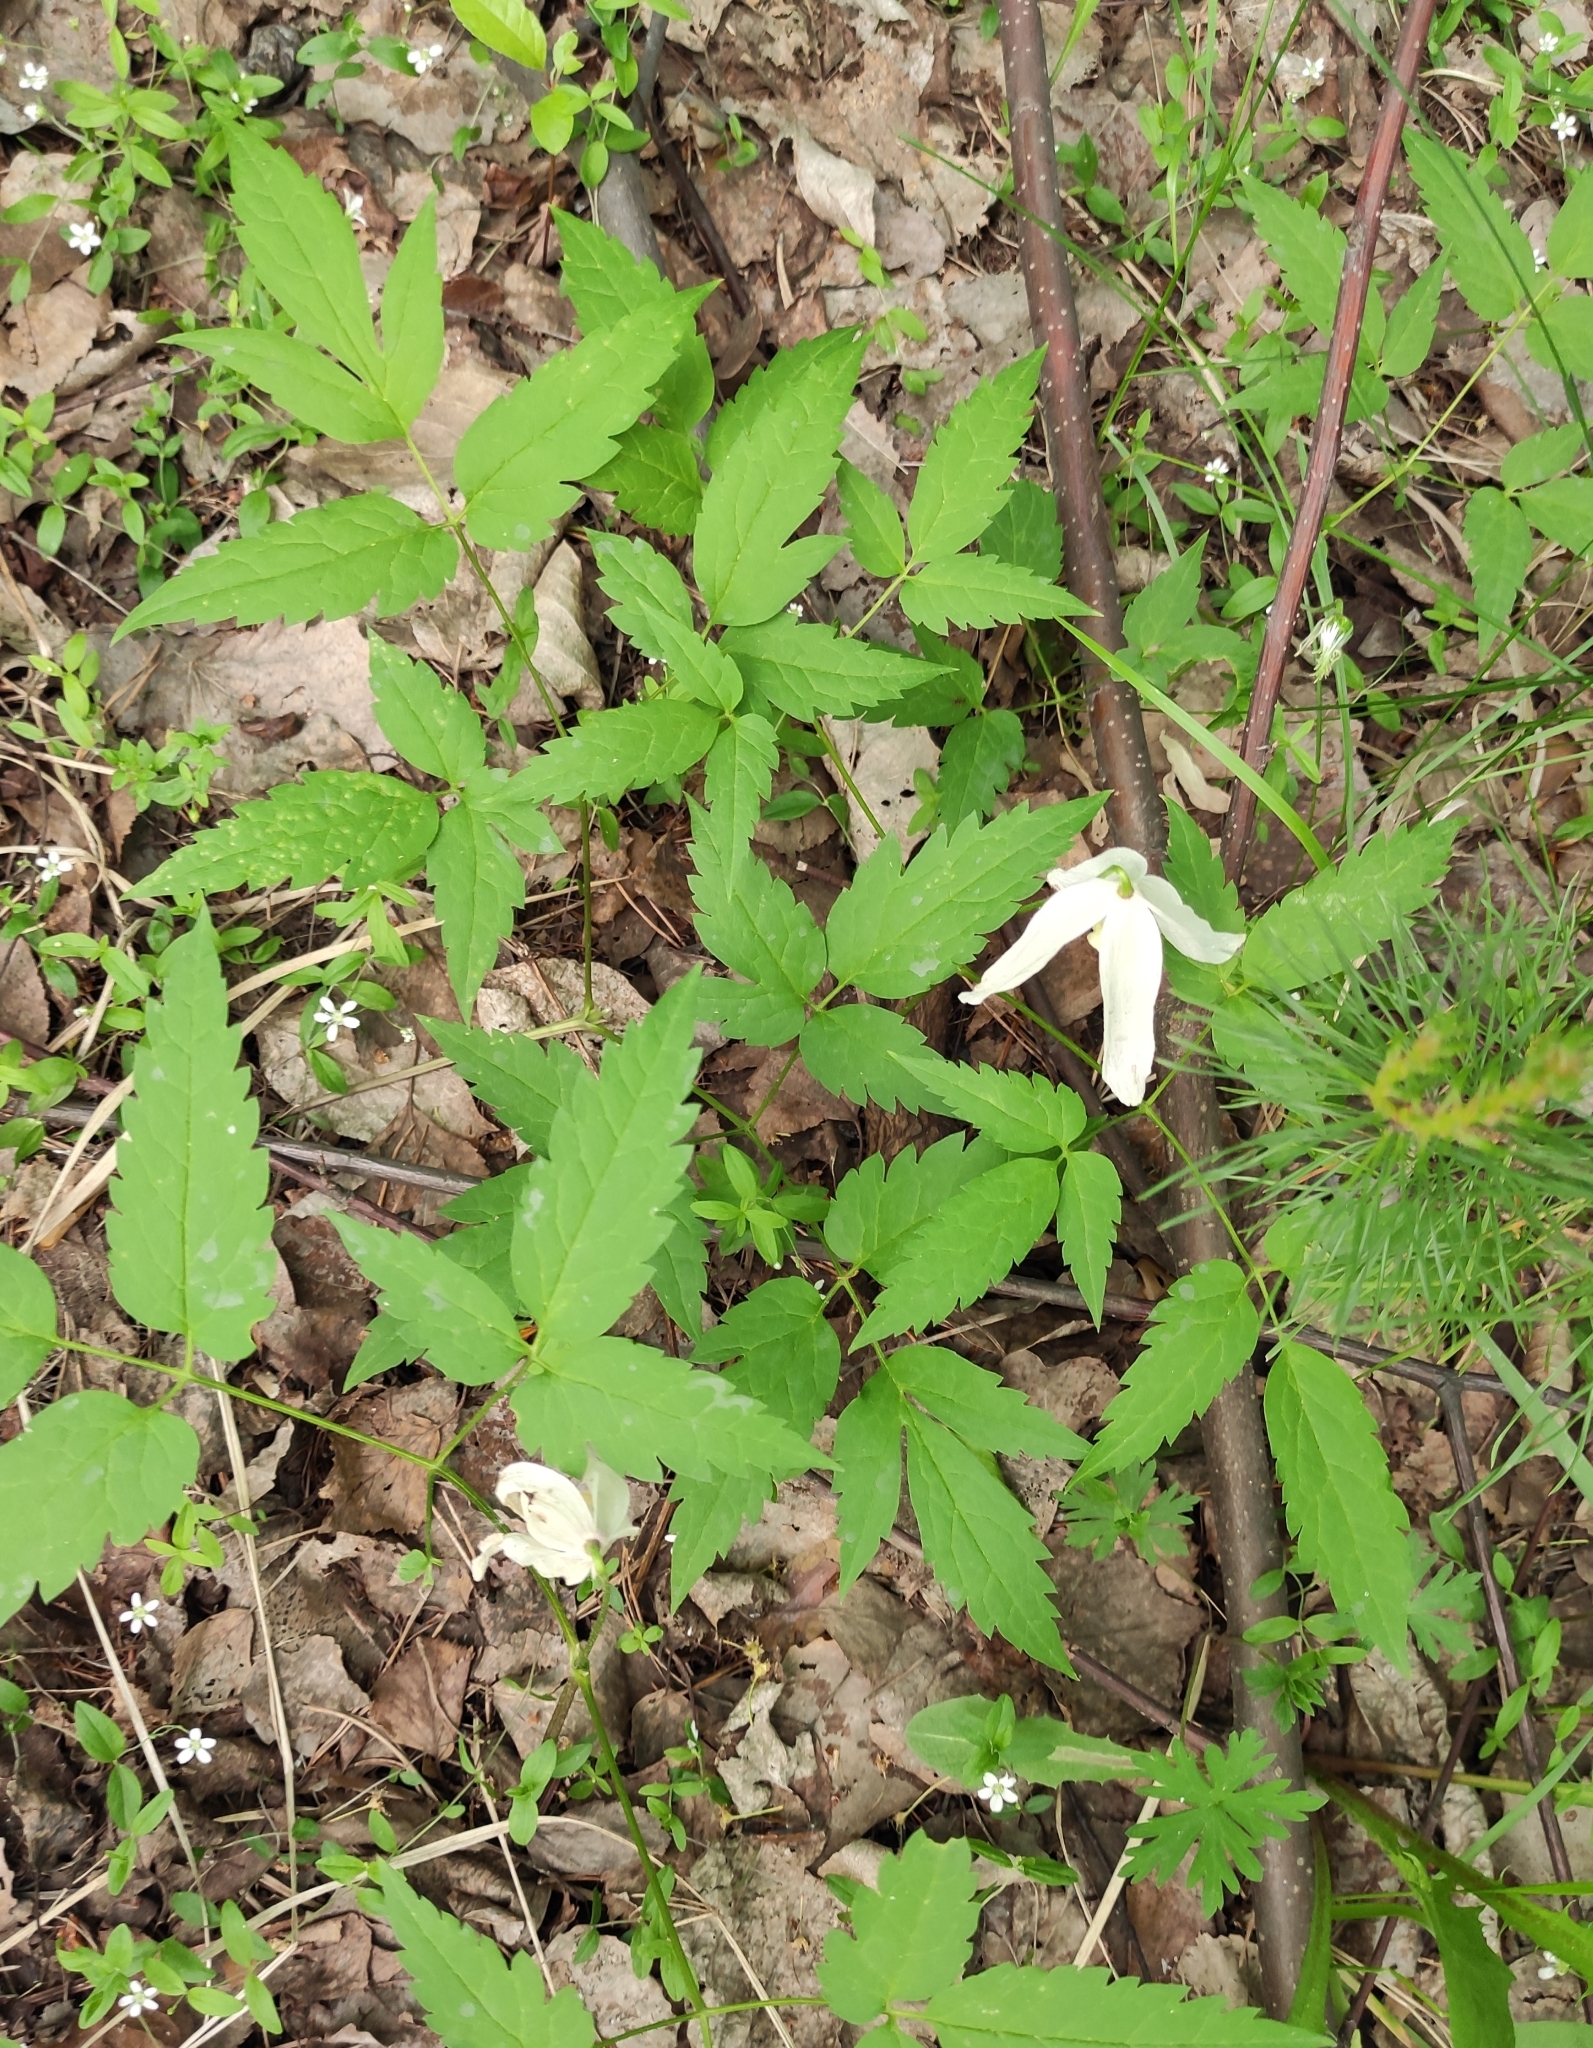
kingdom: Plantae
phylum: Tracheophyta
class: Magnoliopsida
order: Ranunculales
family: Ranunculaceae
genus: Clematis
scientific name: Clematis sibirica
